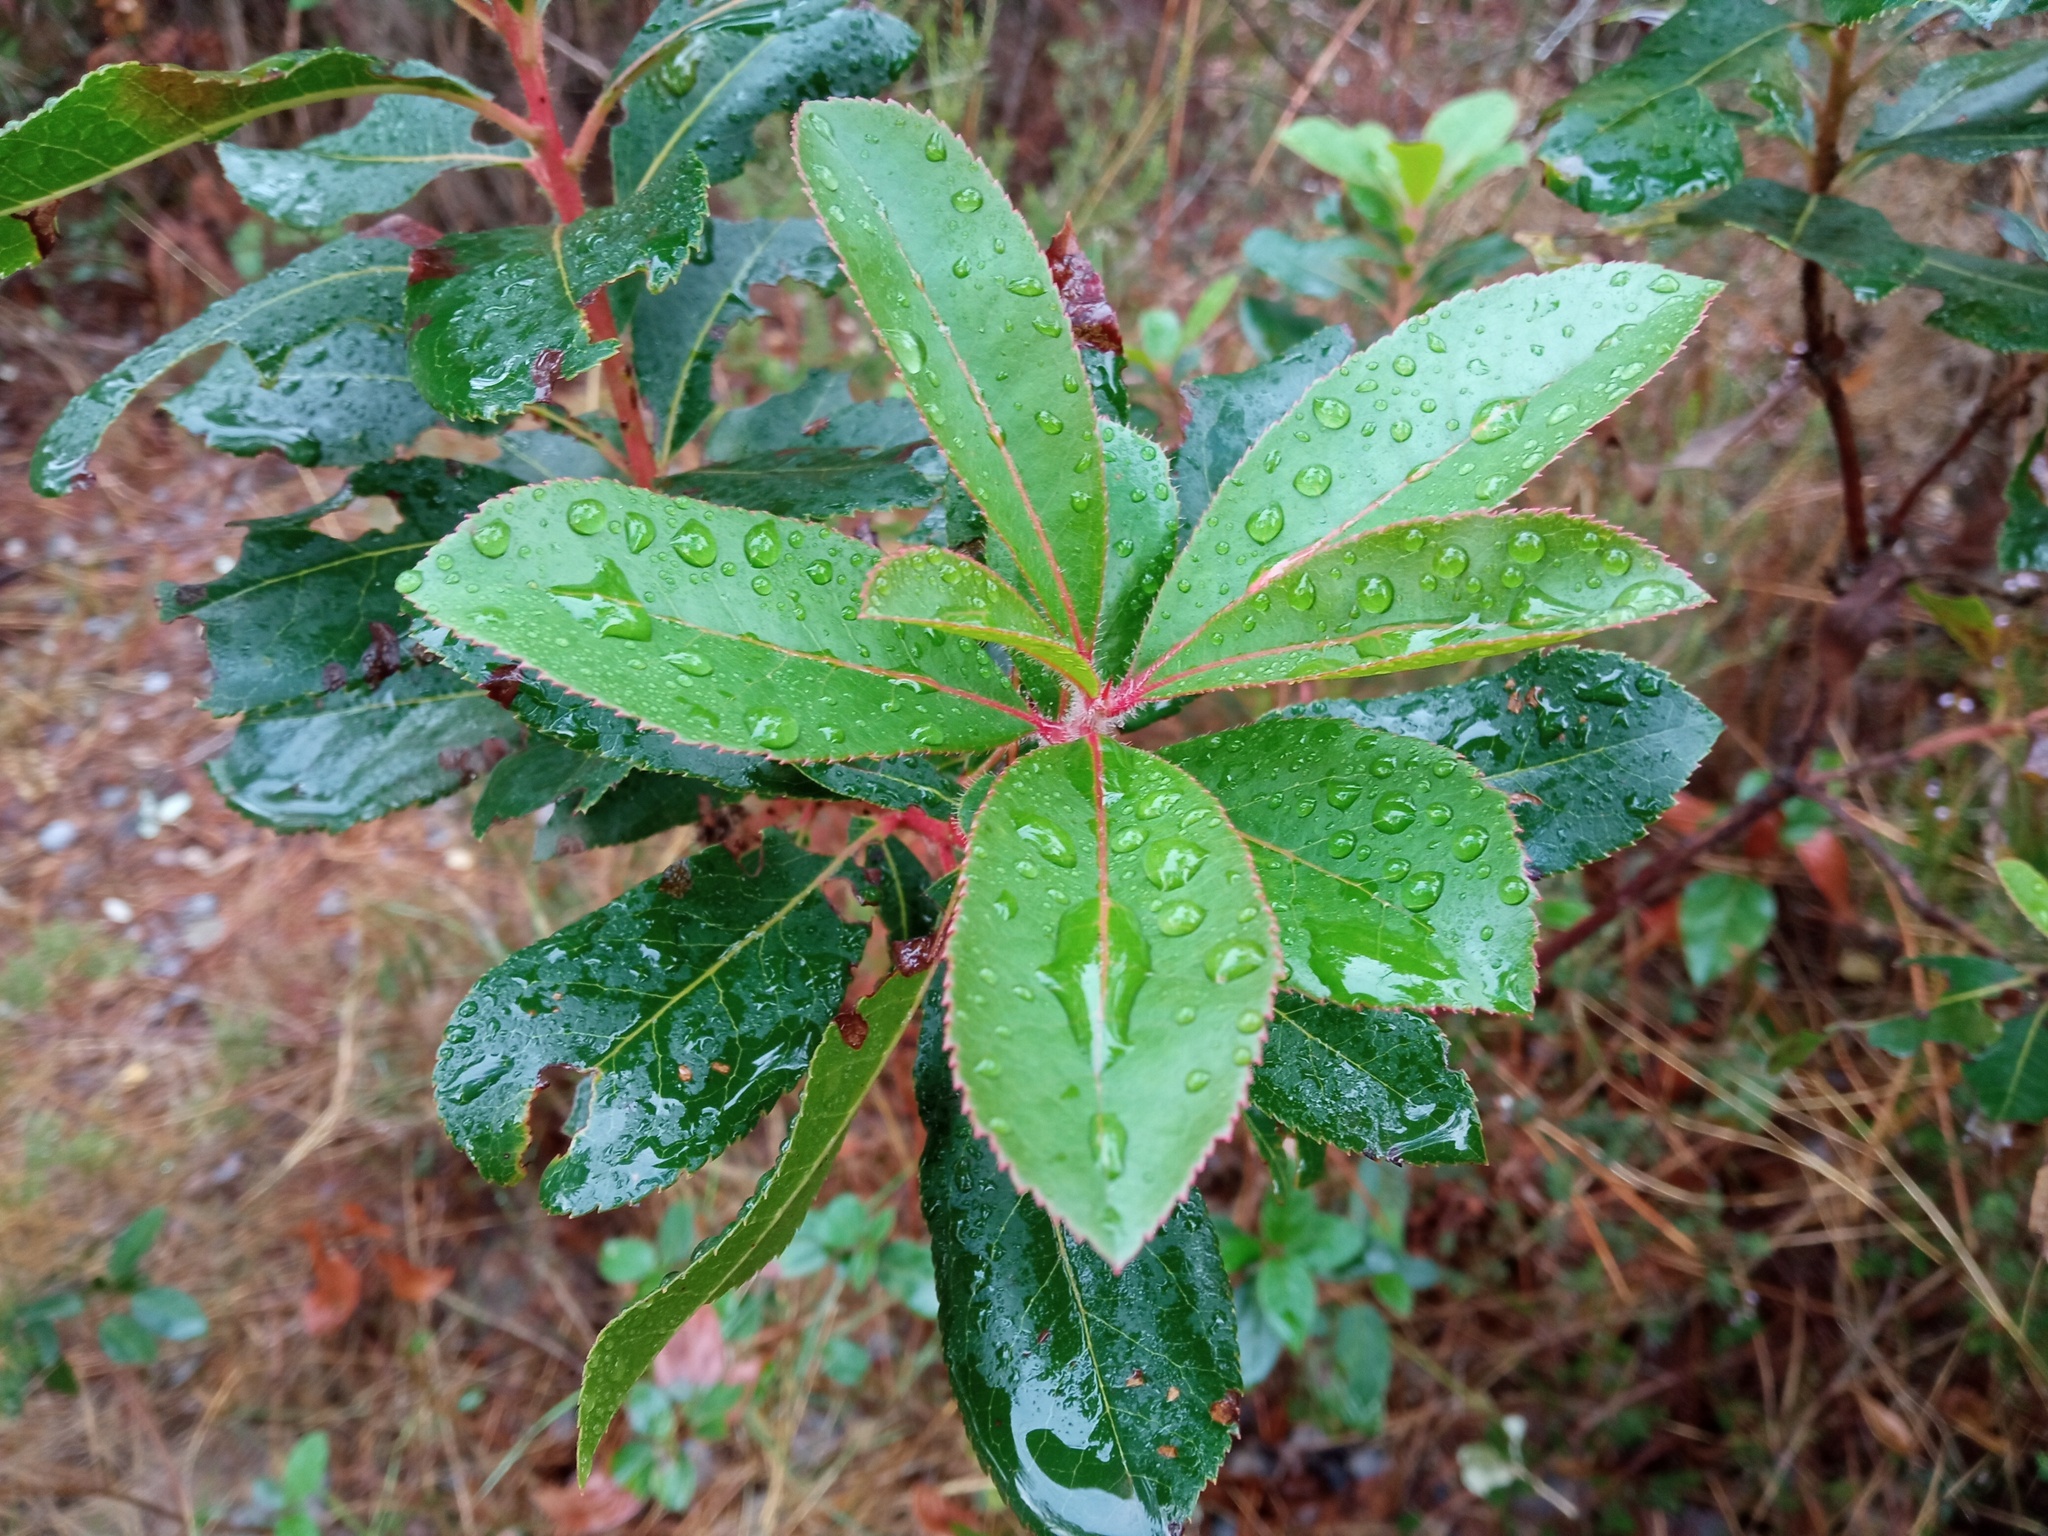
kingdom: Plantae
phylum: Tracheophyta
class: Magnoliopsida
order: Ericales
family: Ericaceae
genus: Arbutus
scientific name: Arbutus unedo
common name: Strawberry-tree
